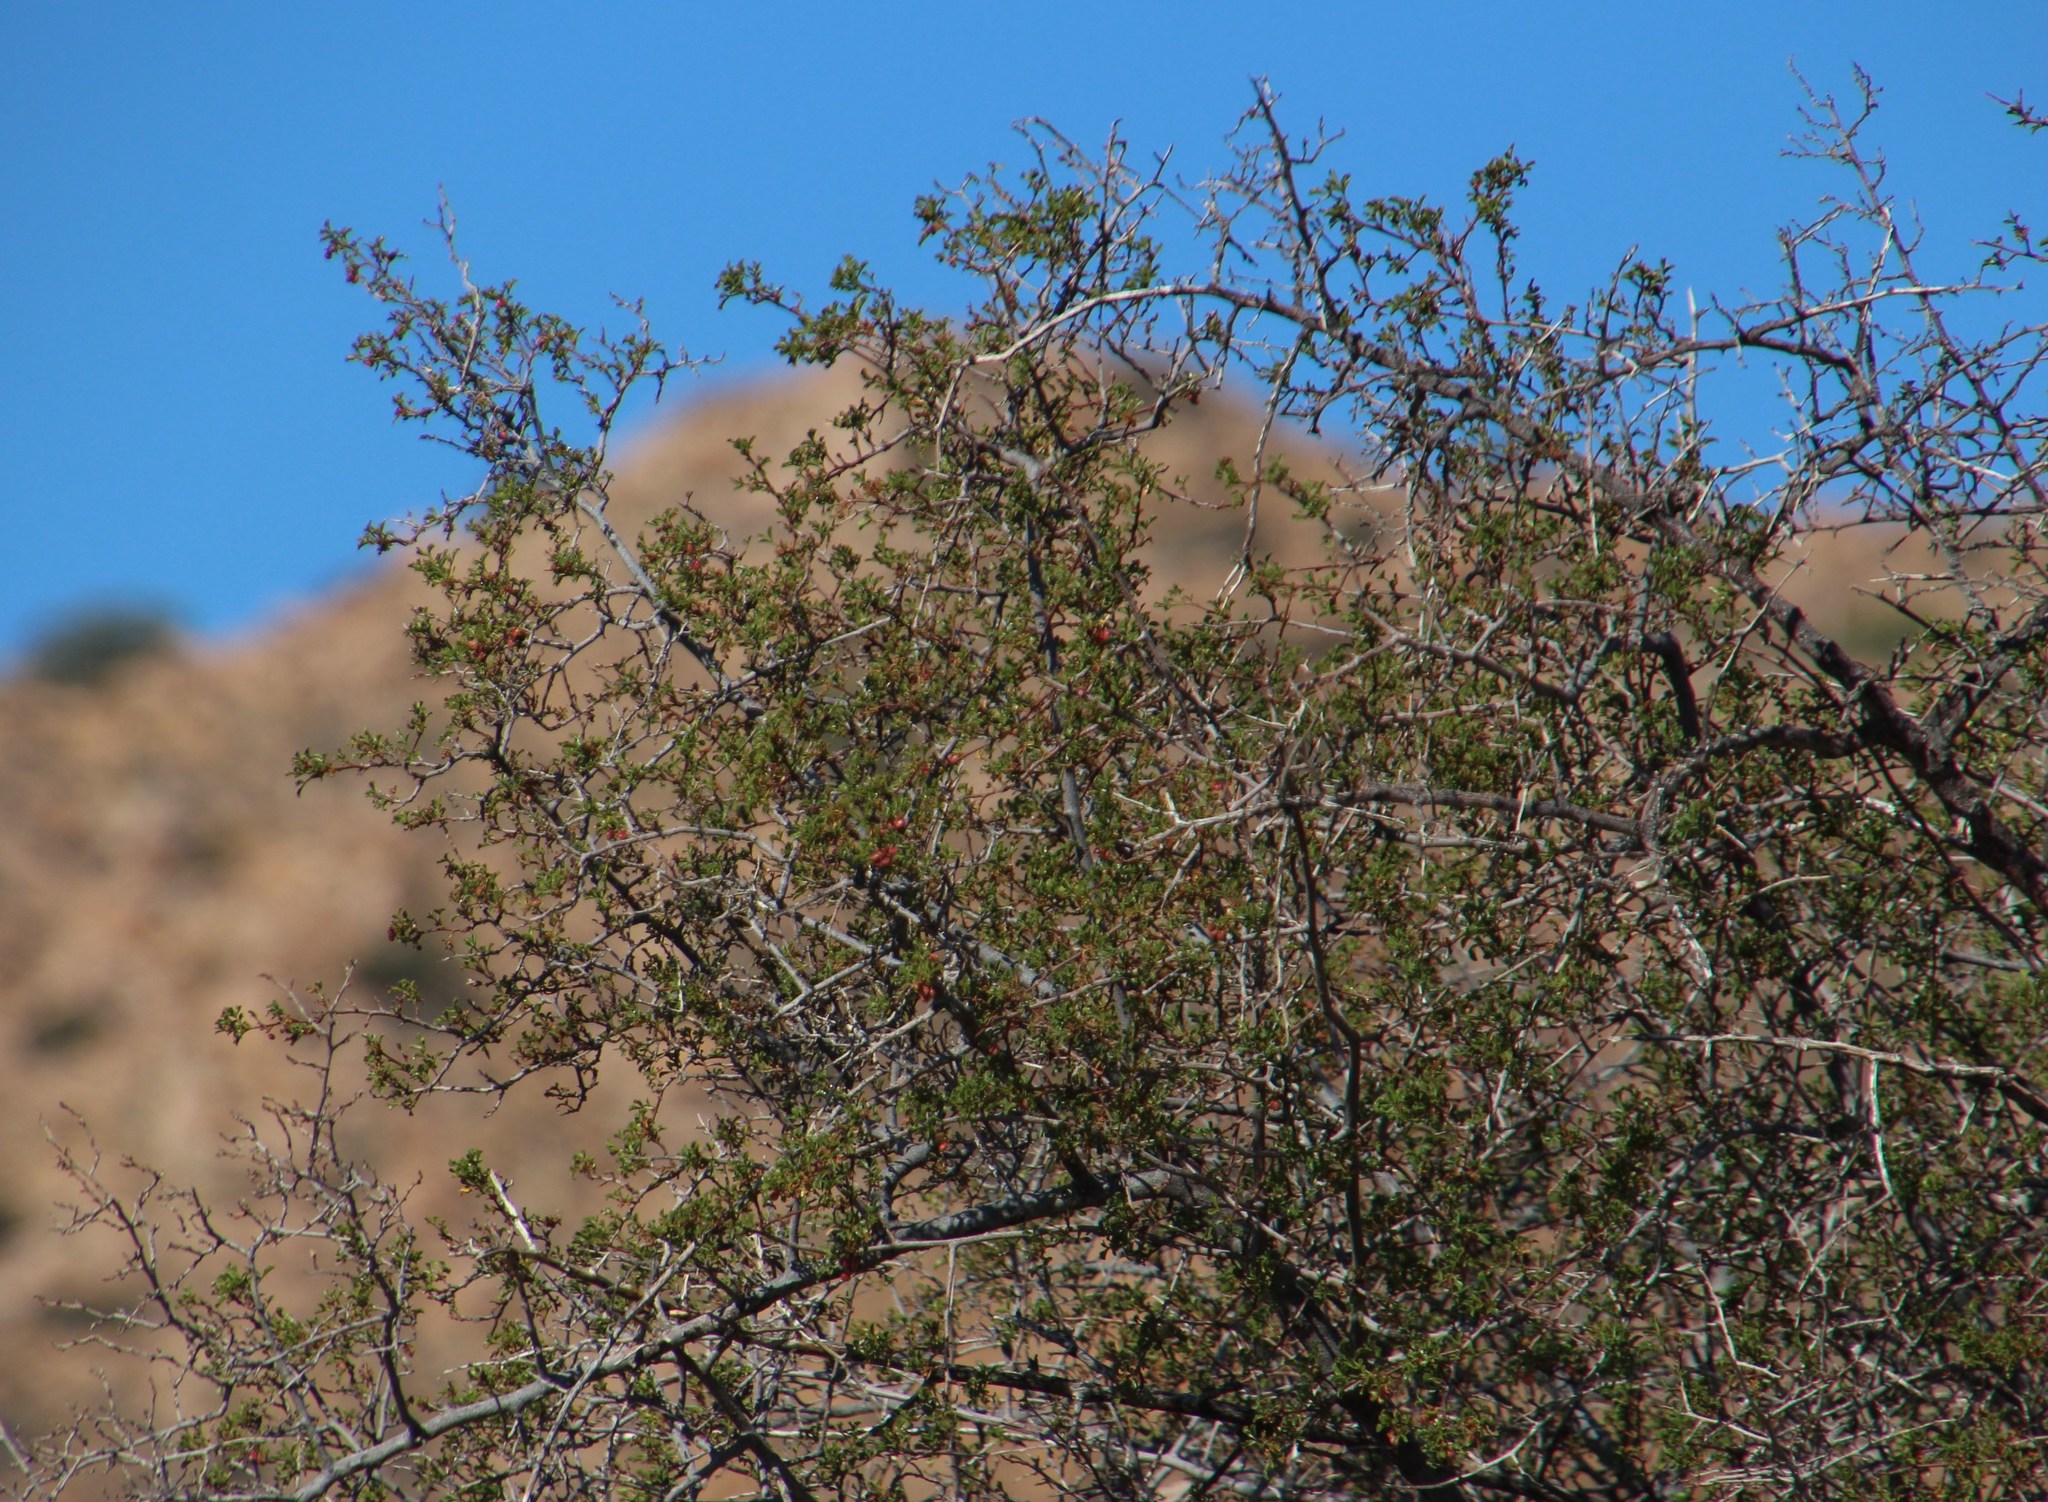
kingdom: Plantae
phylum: Tracheophyta
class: Magnoliopsida
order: Sapindales
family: Anacardiaceae
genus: Searsia
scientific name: Searsia undulata
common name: Namaqua kunibush
